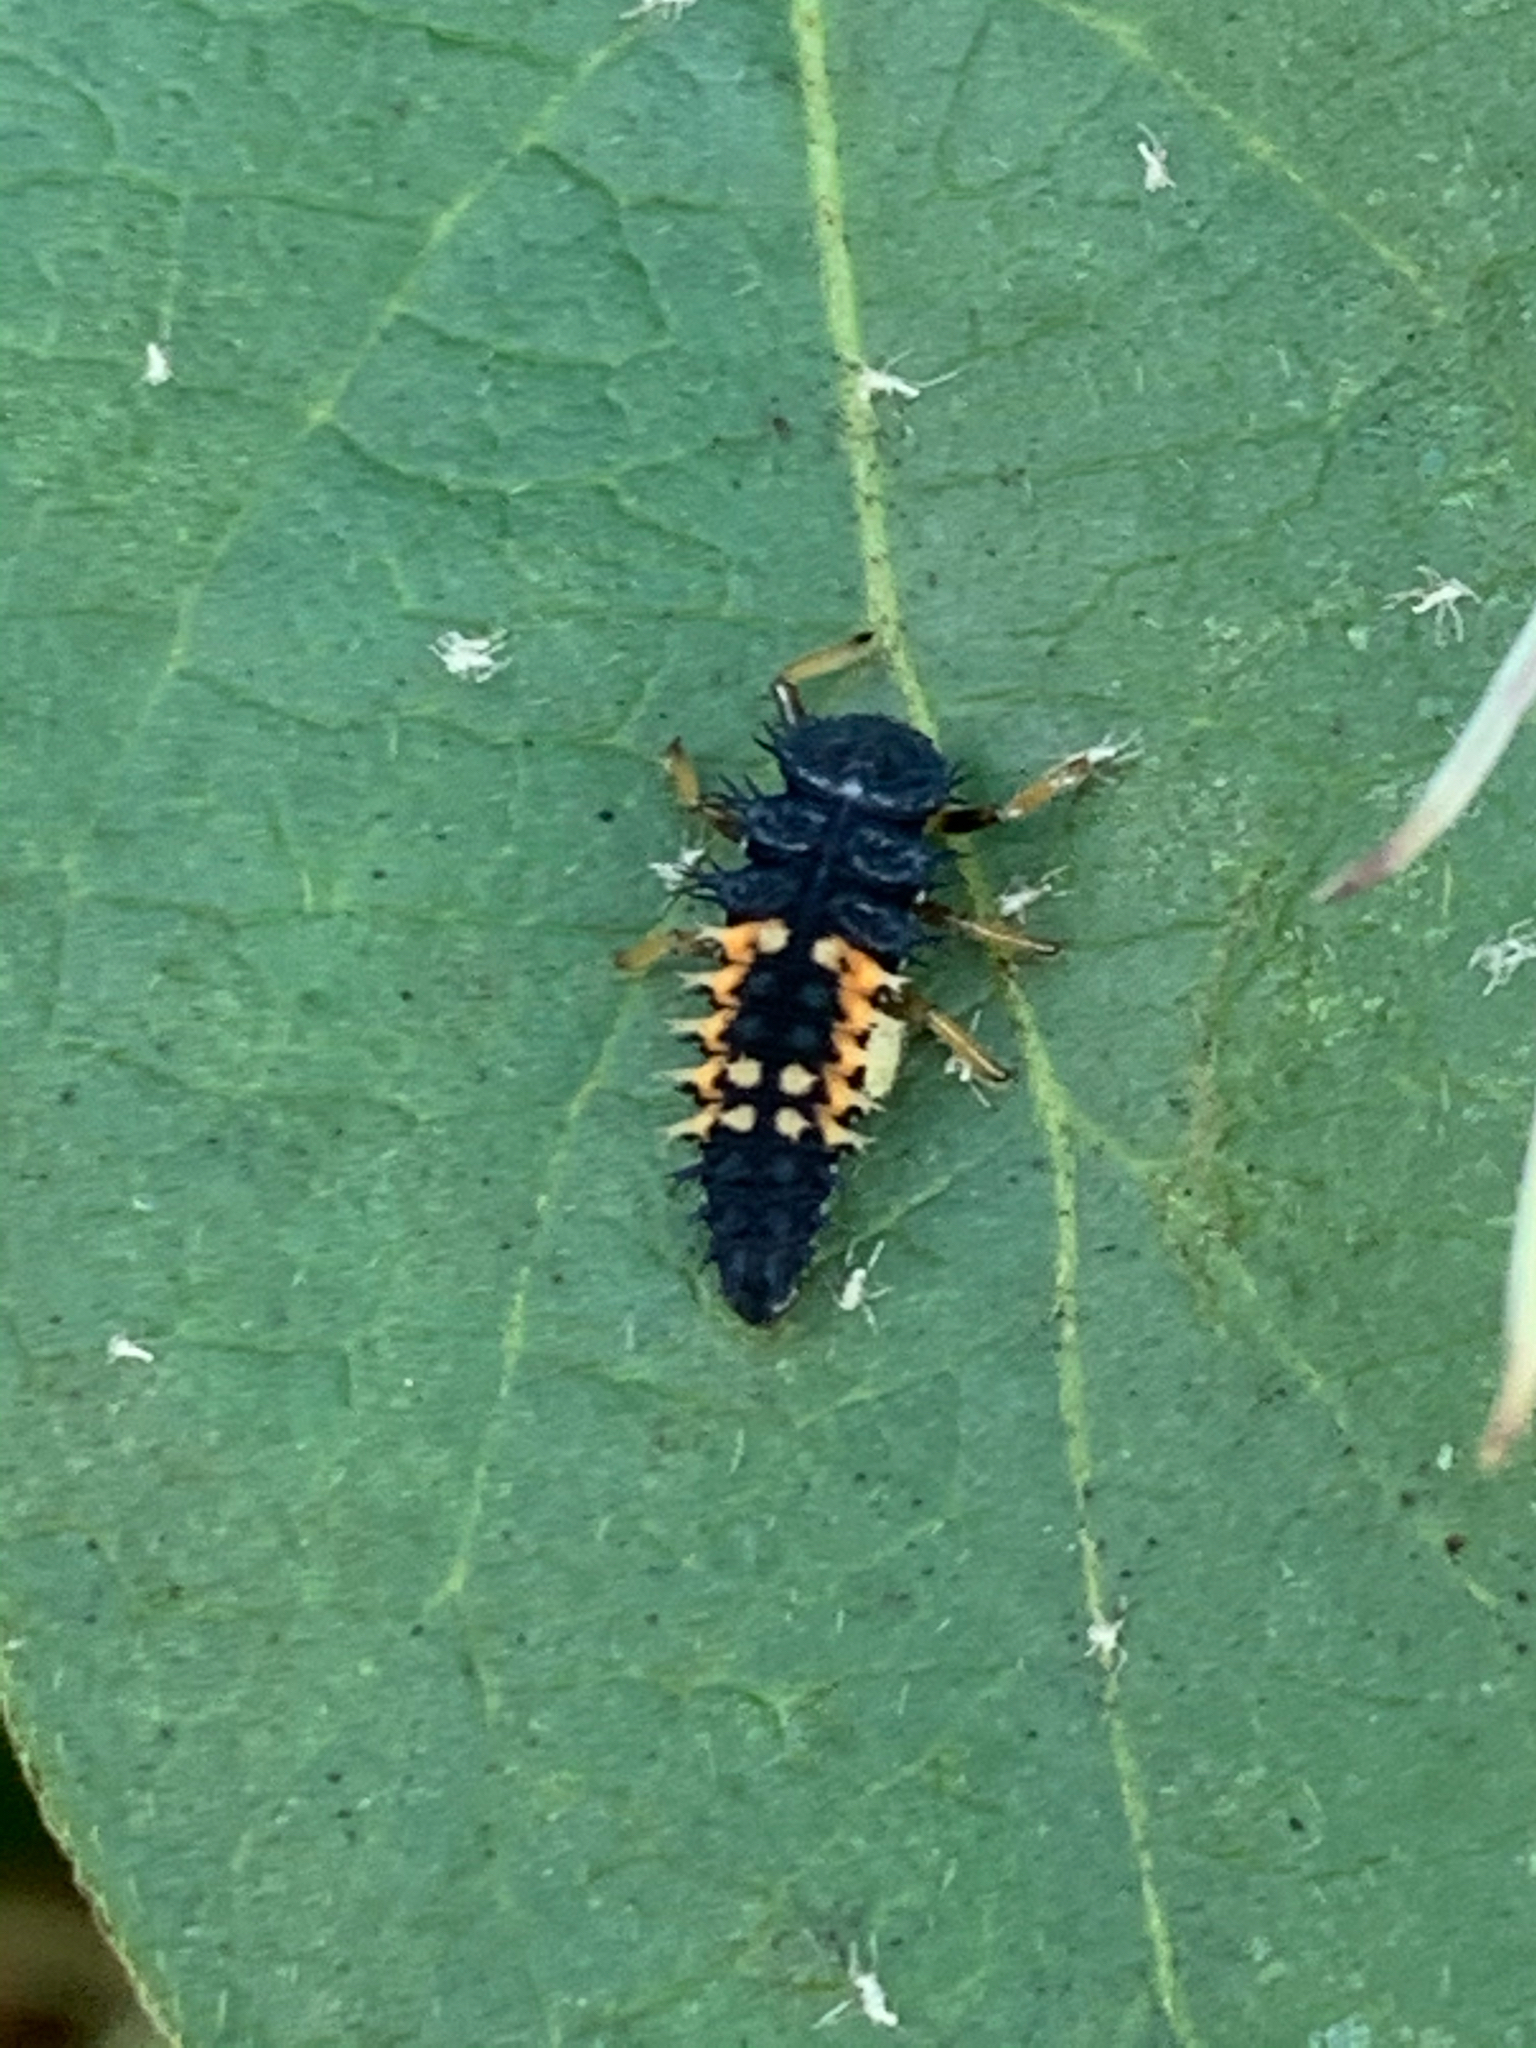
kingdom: Animalia
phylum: Arthropoda
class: Insecta
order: Coleoptera
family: Coccinellidae
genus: Harmonia
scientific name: Harmonia axyridis
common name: Harlequin ladybird
